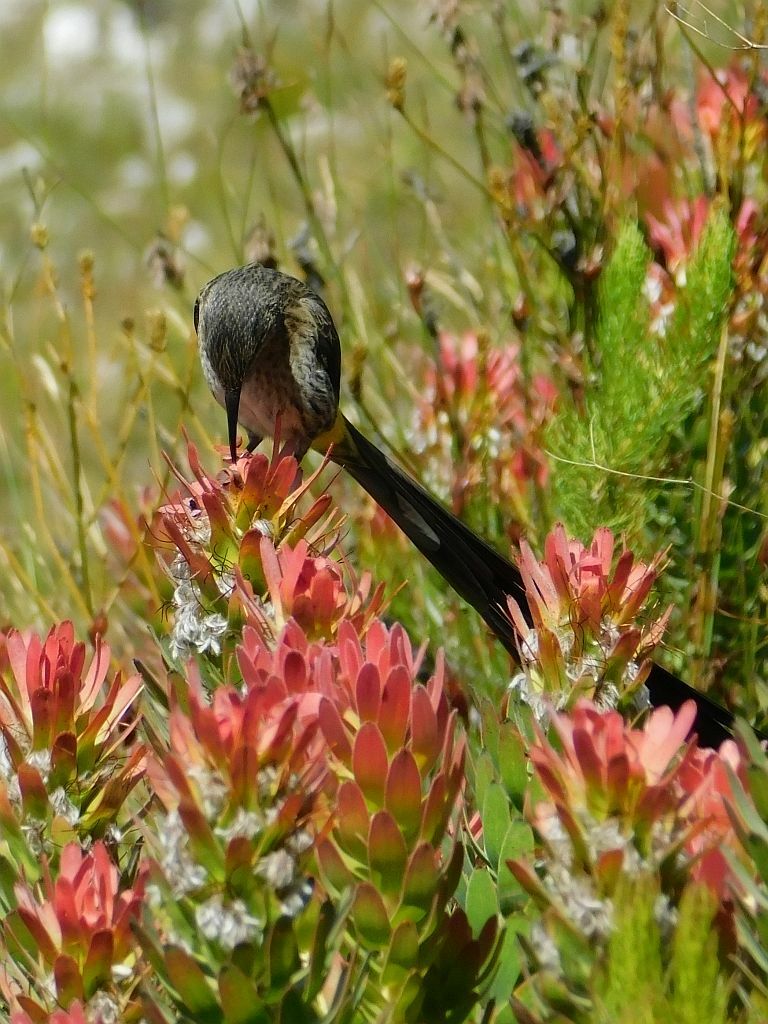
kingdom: Animalia
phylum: Chordata
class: Aves
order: Passeriformes
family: Promeropidae
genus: Promerops
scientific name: Promerops cafer
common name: Cape sugarbird
